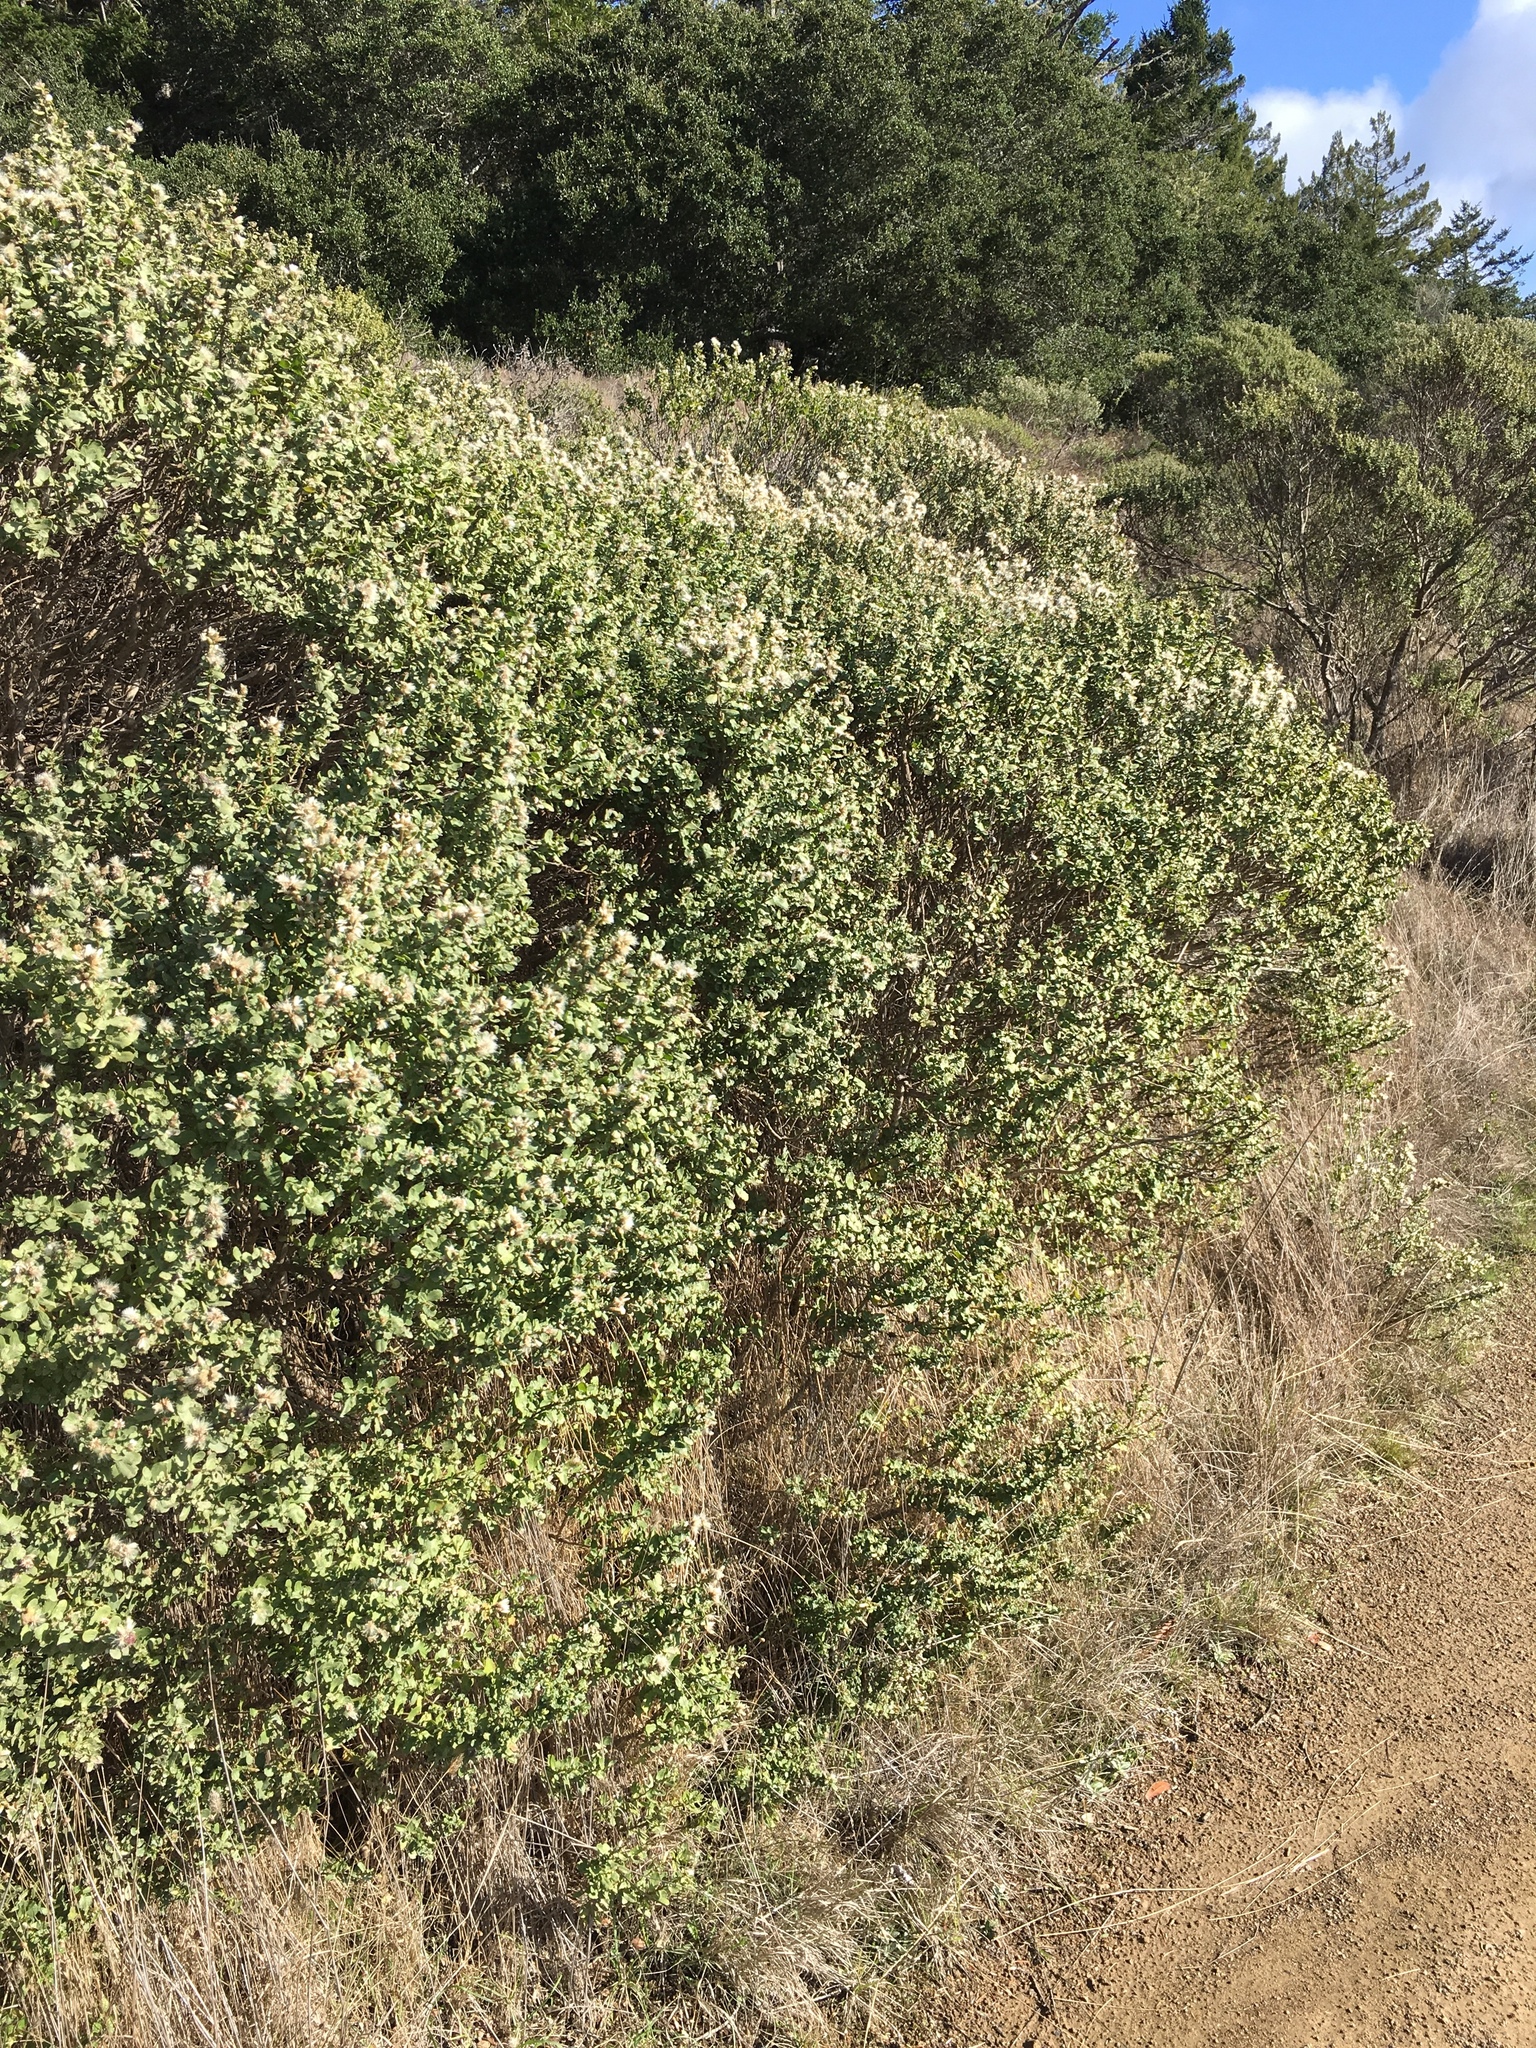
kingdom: Plantae
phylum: Tracheophyta
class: Magnoliopsida
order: Asterales
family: Asteraceae
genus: Baccharis
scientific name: Baccharis pilularis
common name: Coyotebrush
